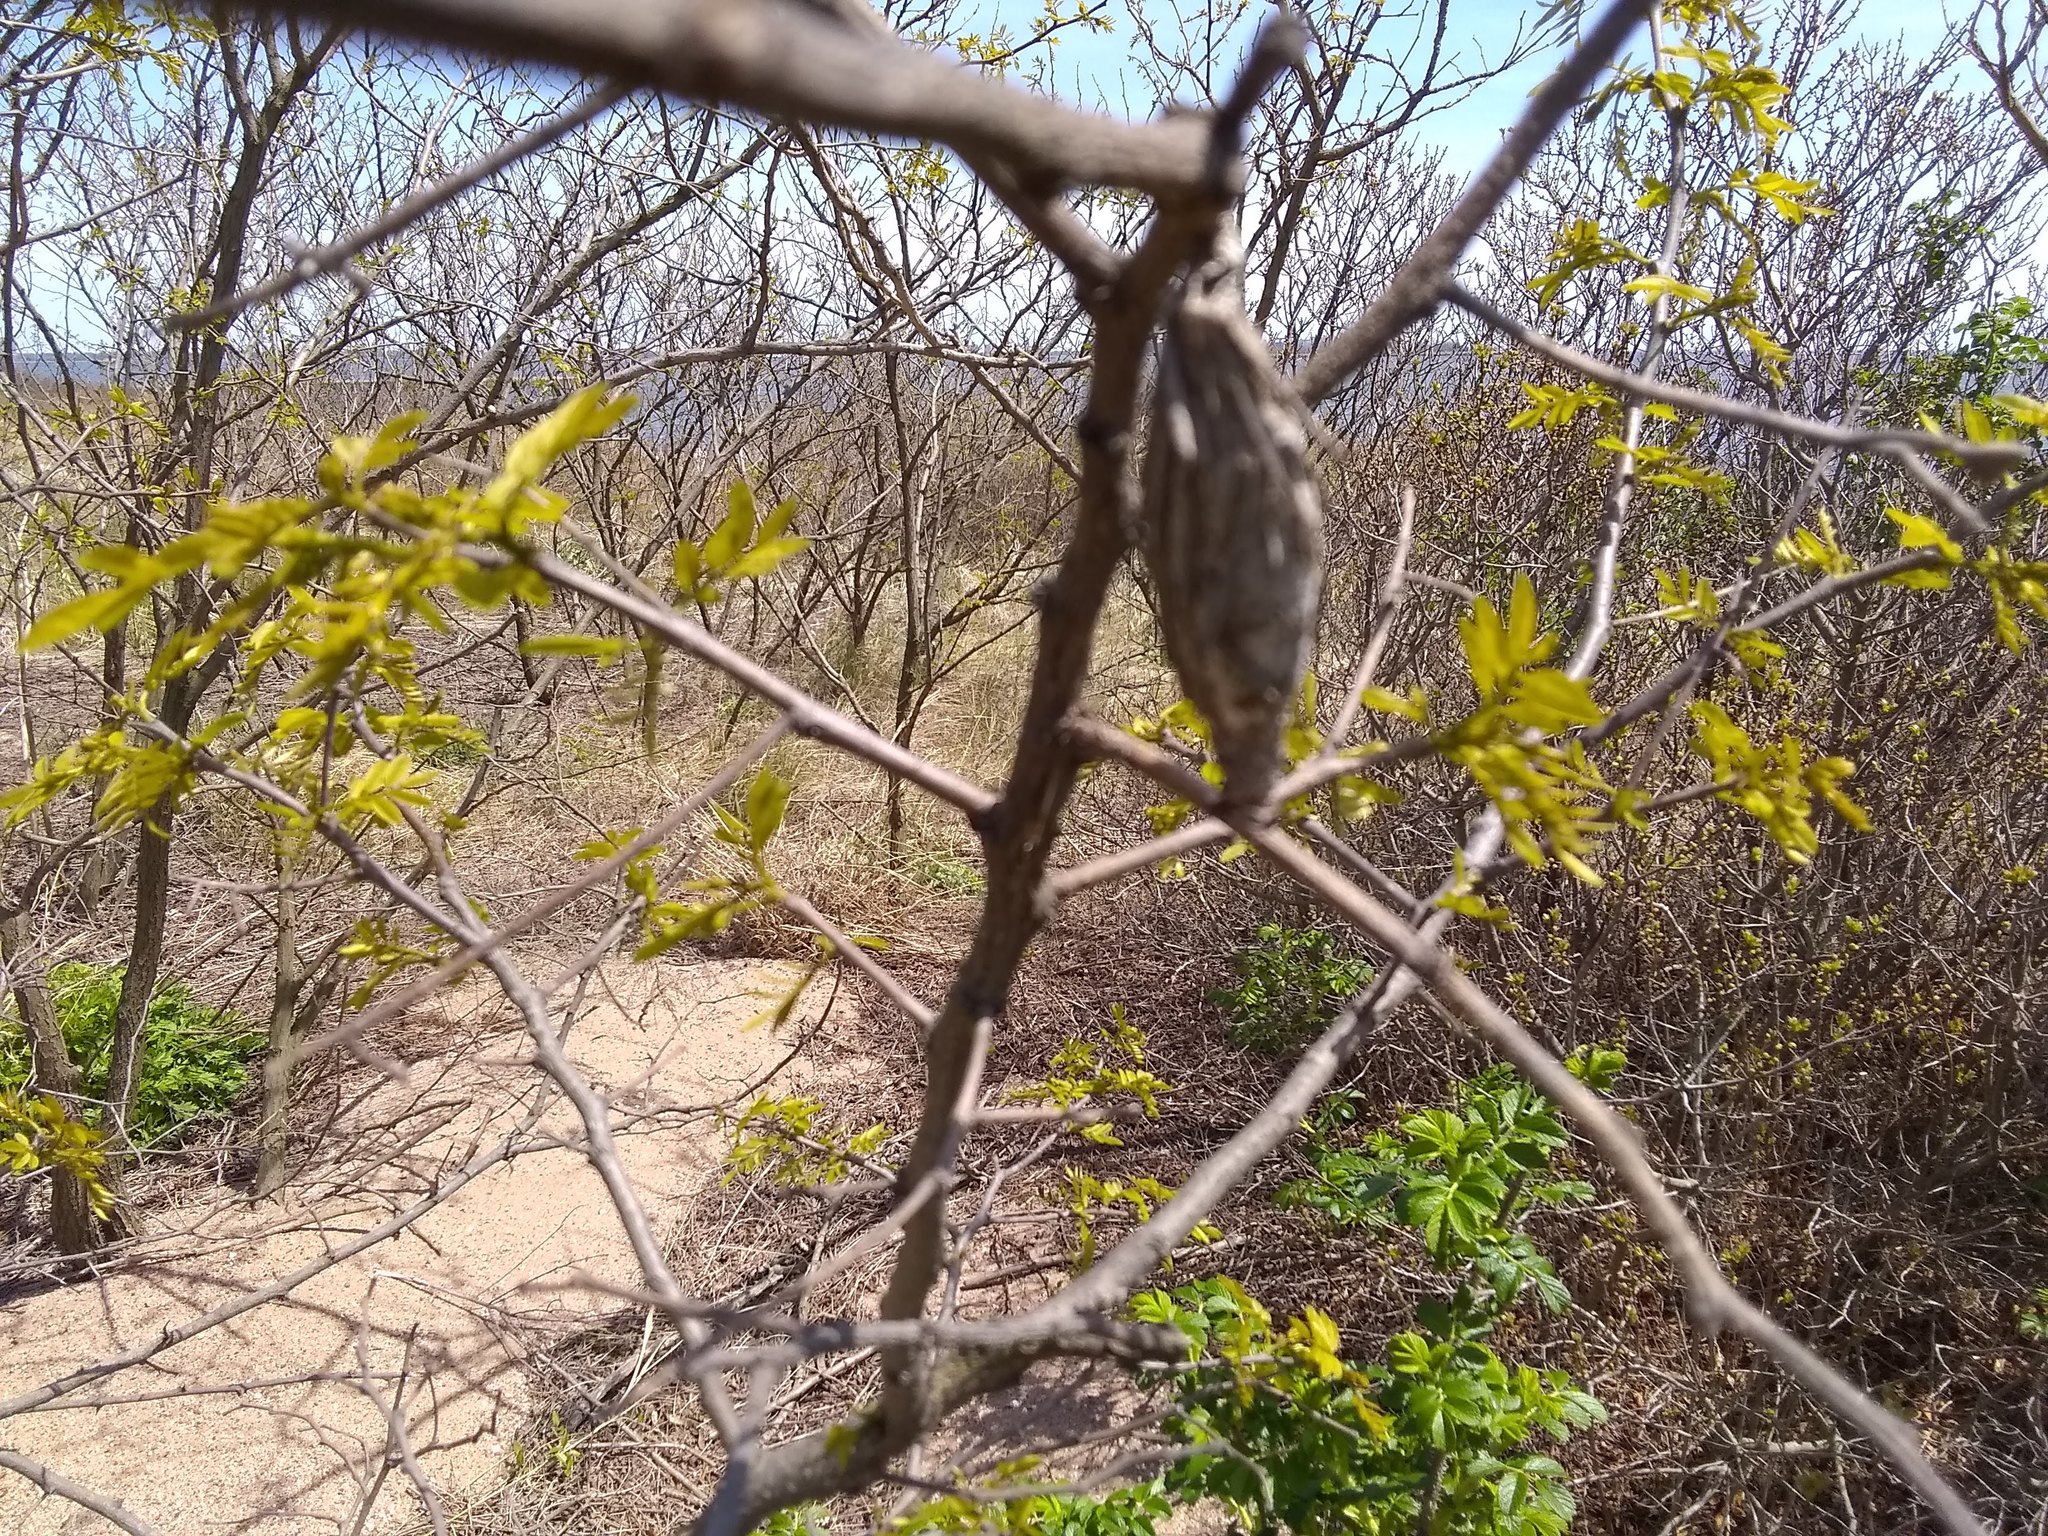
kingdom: Animalia
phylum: Arthropoda
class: Insecta
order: Lepidoptera
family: Psychidae
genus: Thyridopteryx
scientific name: Thyridopteryx ephemeraeformis
